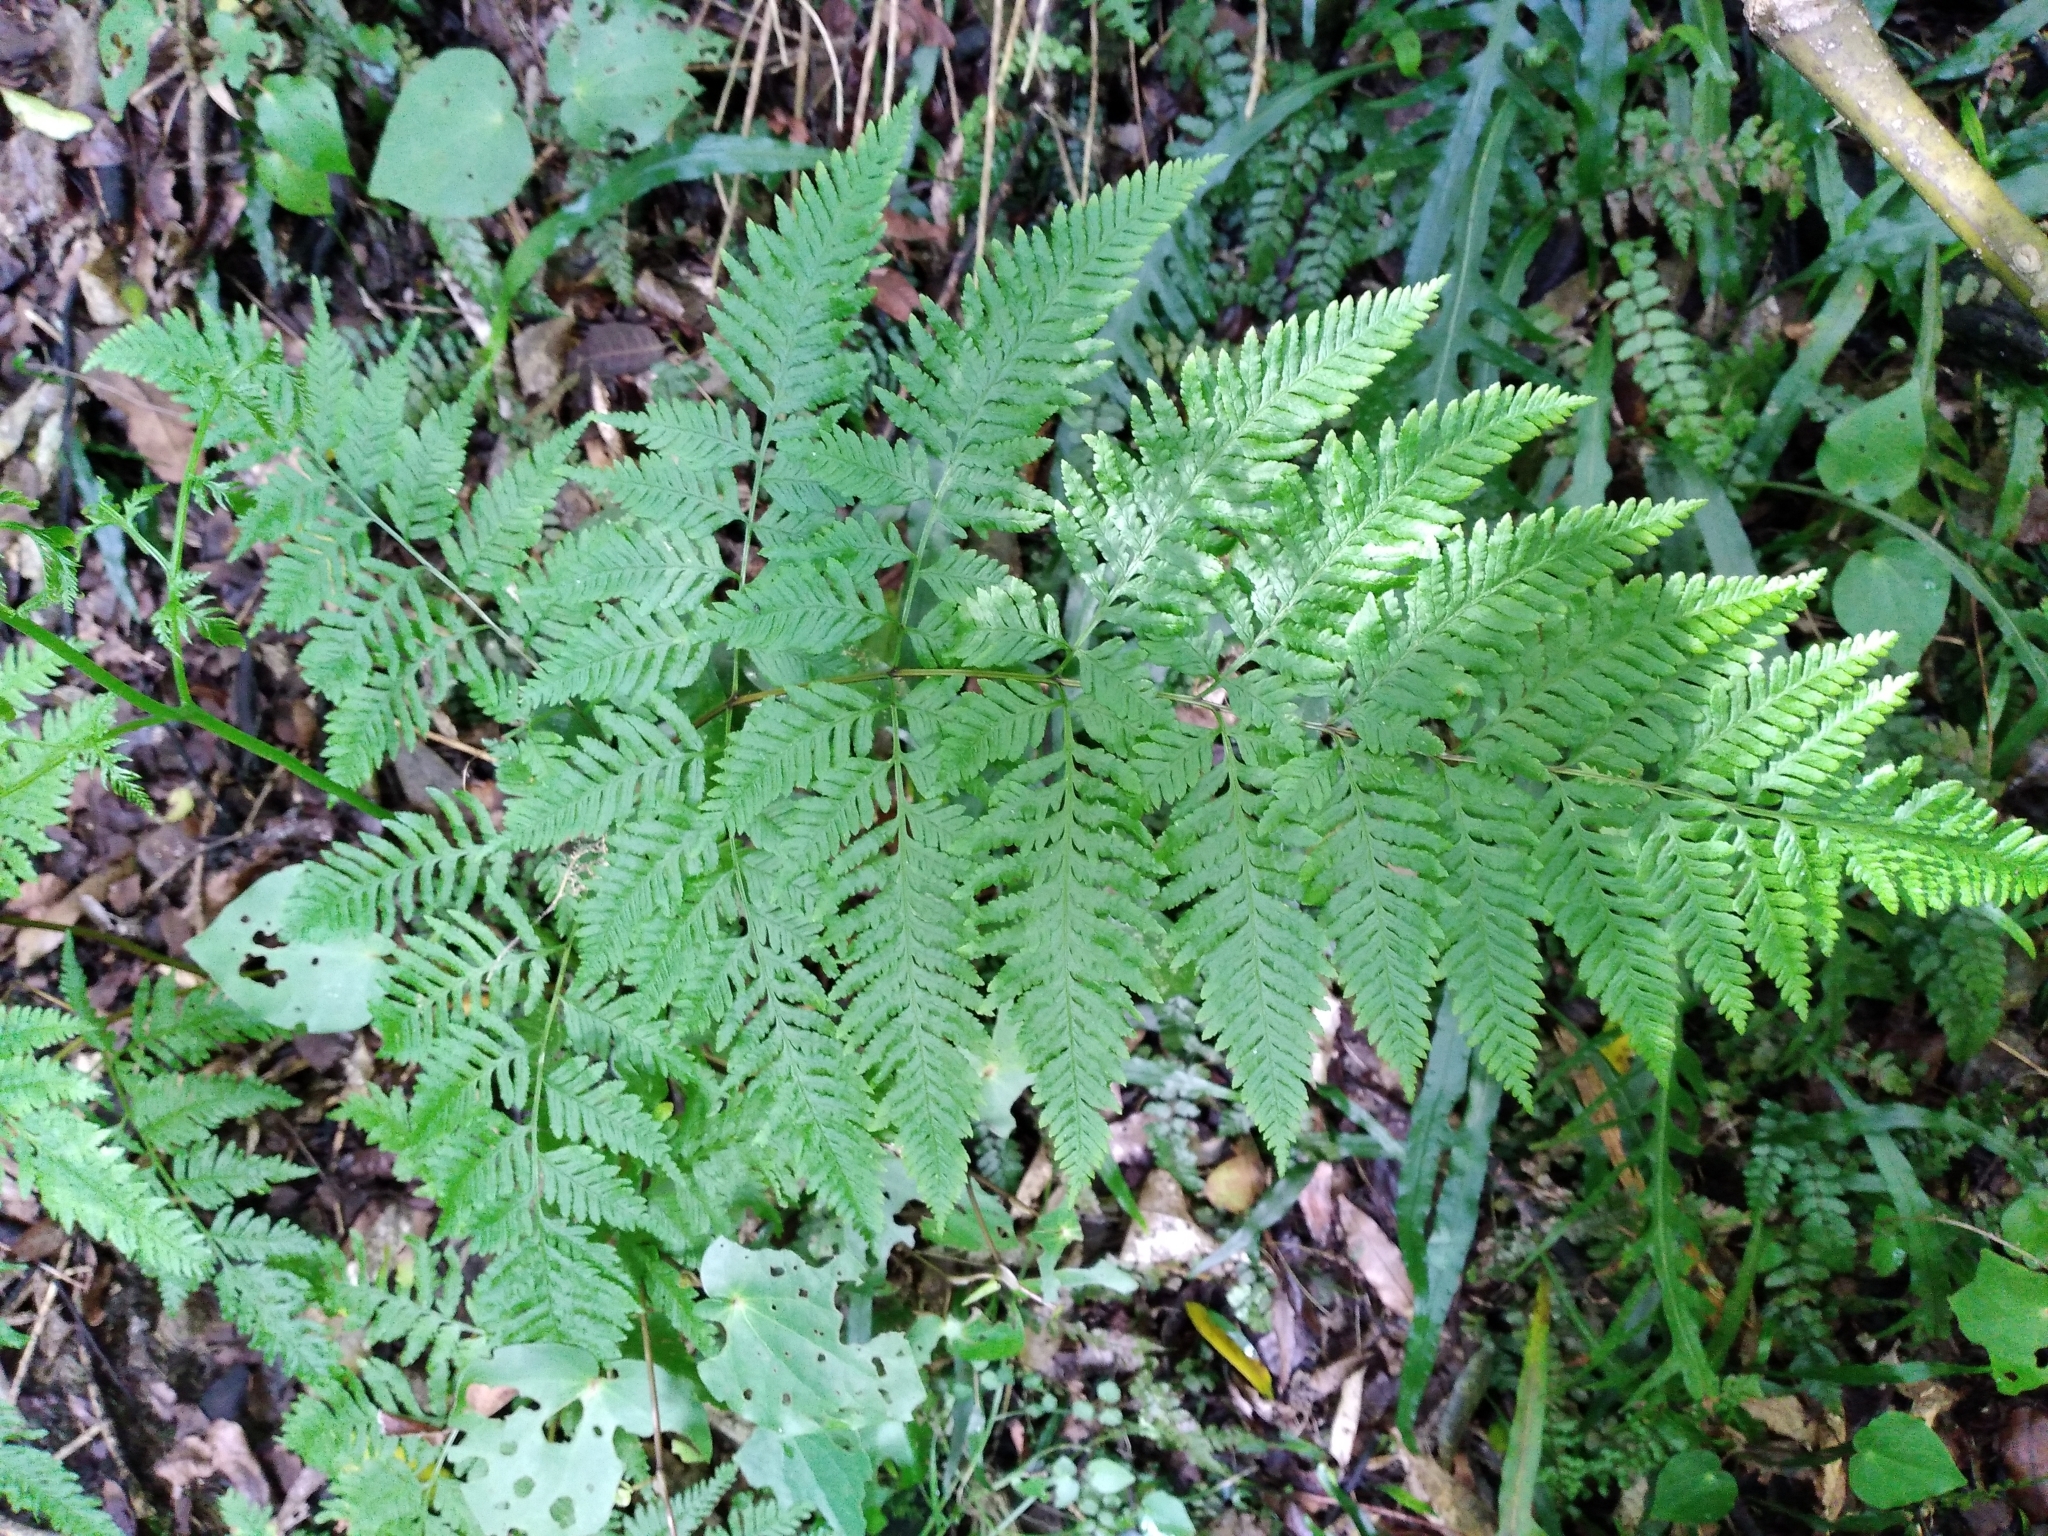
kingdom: Plantae
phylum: Tracheophyta
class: Polypodiopsida
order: Polypodiales
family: Pteridaceae
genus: Pteris
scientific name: Pteris tremula
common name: Australian brake
